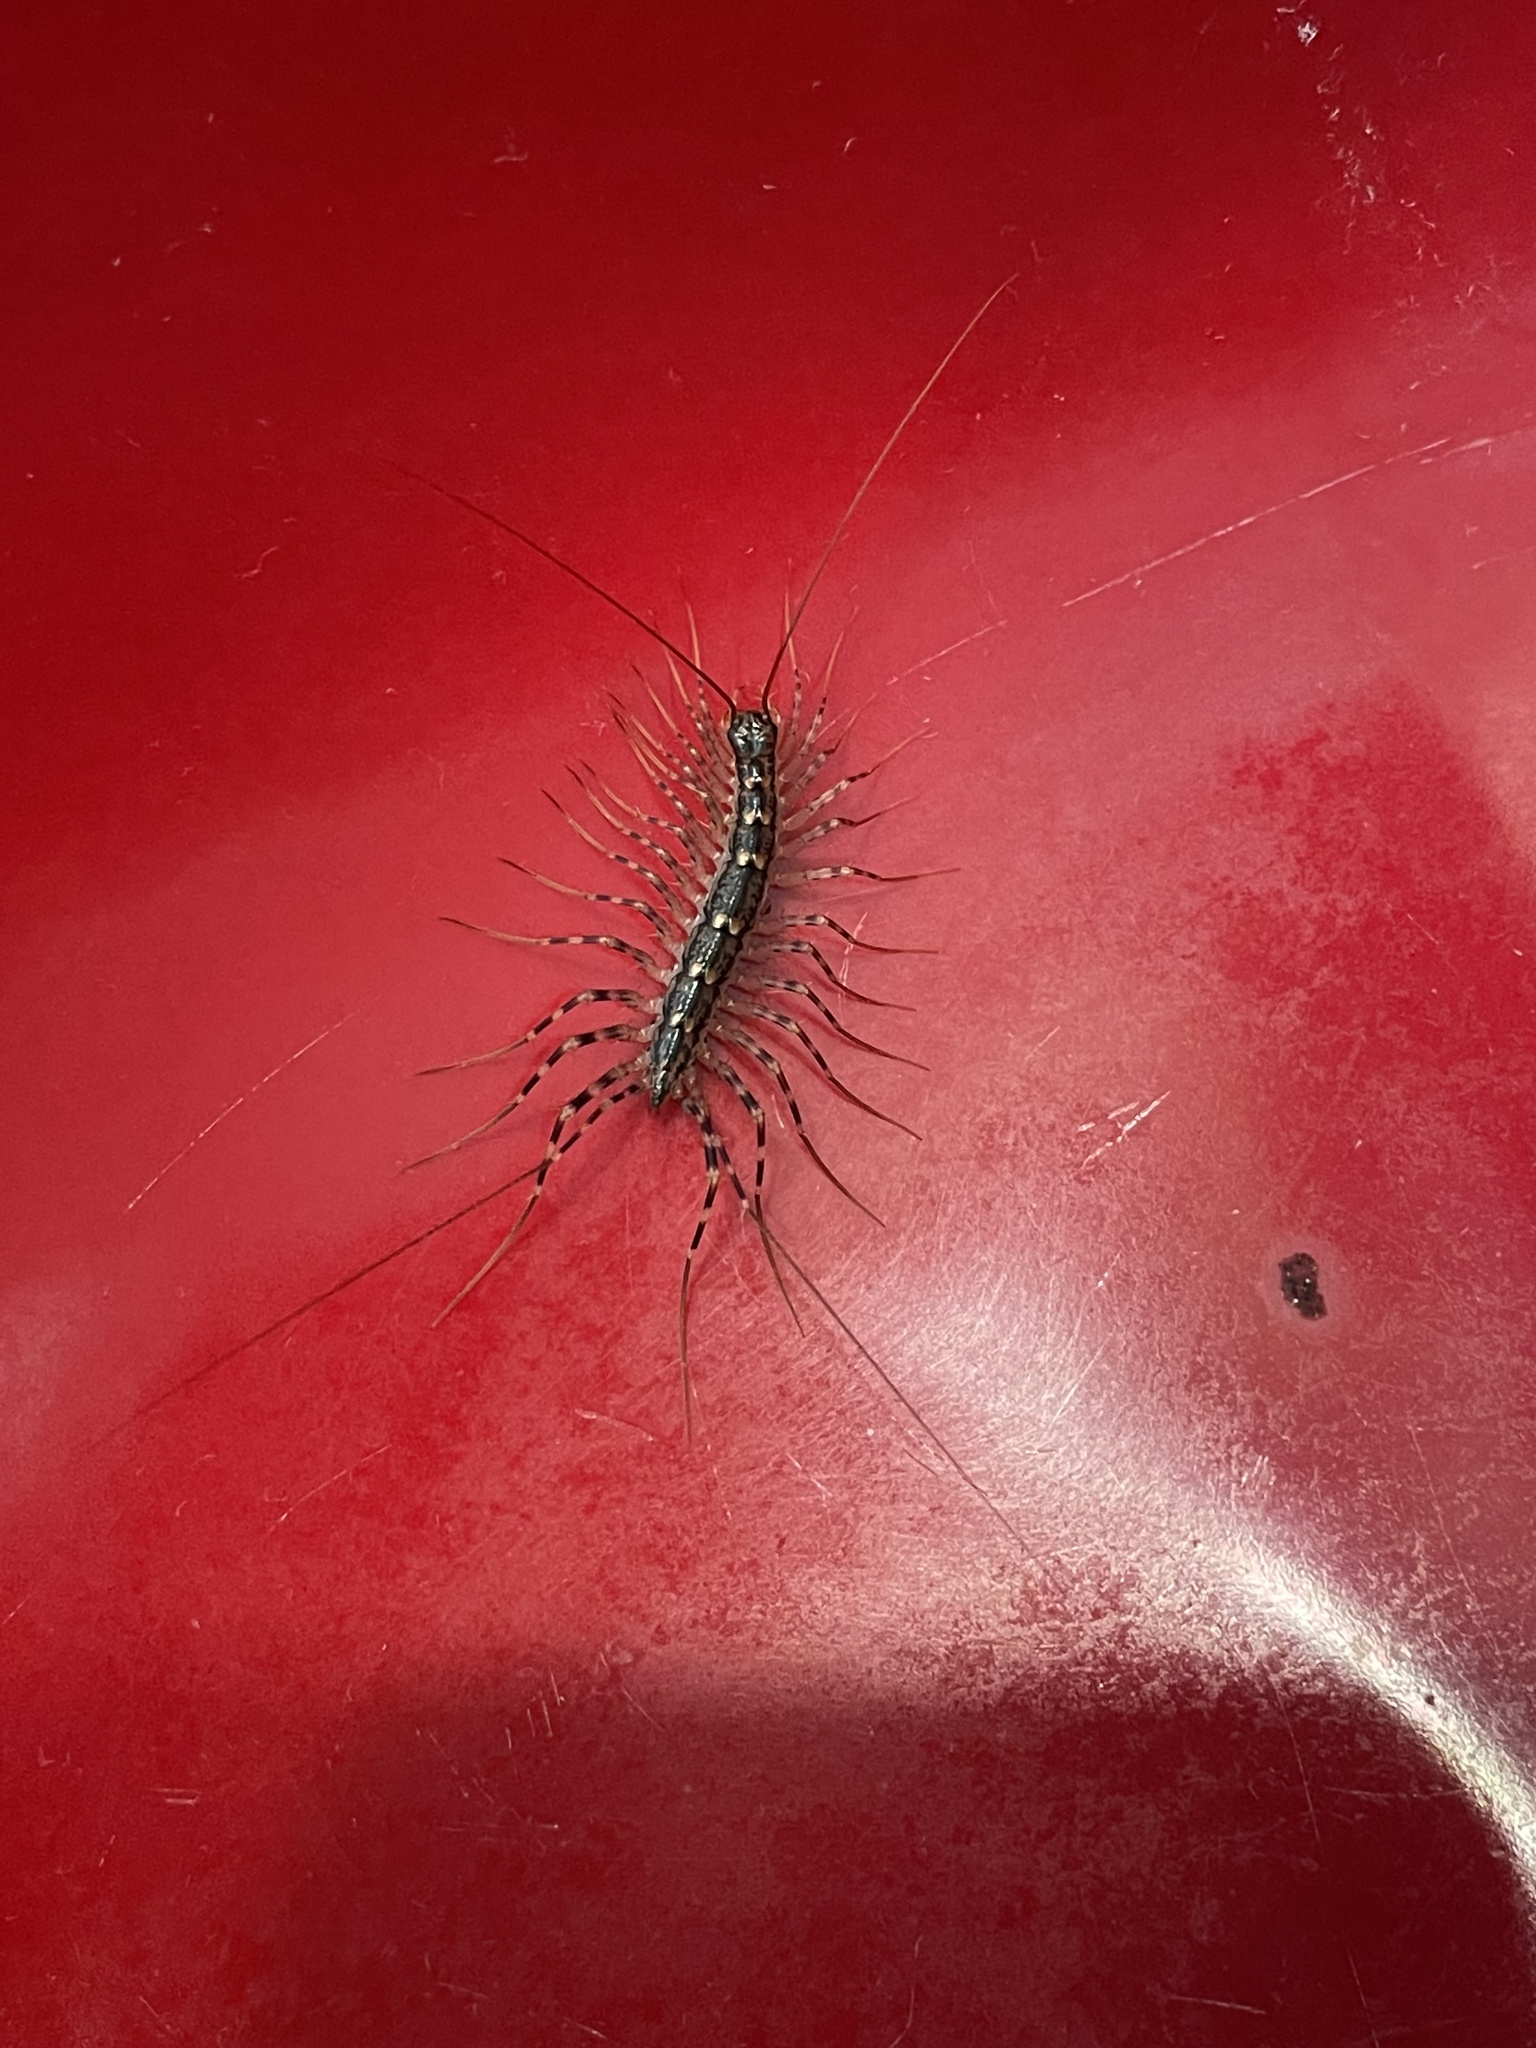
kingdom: Animalia
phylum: Arthropoda
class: Chilopoda
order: Scutigeromorpha
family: Scutigeridae
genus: Thereuonema
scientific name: Thereuonema tuberculata
